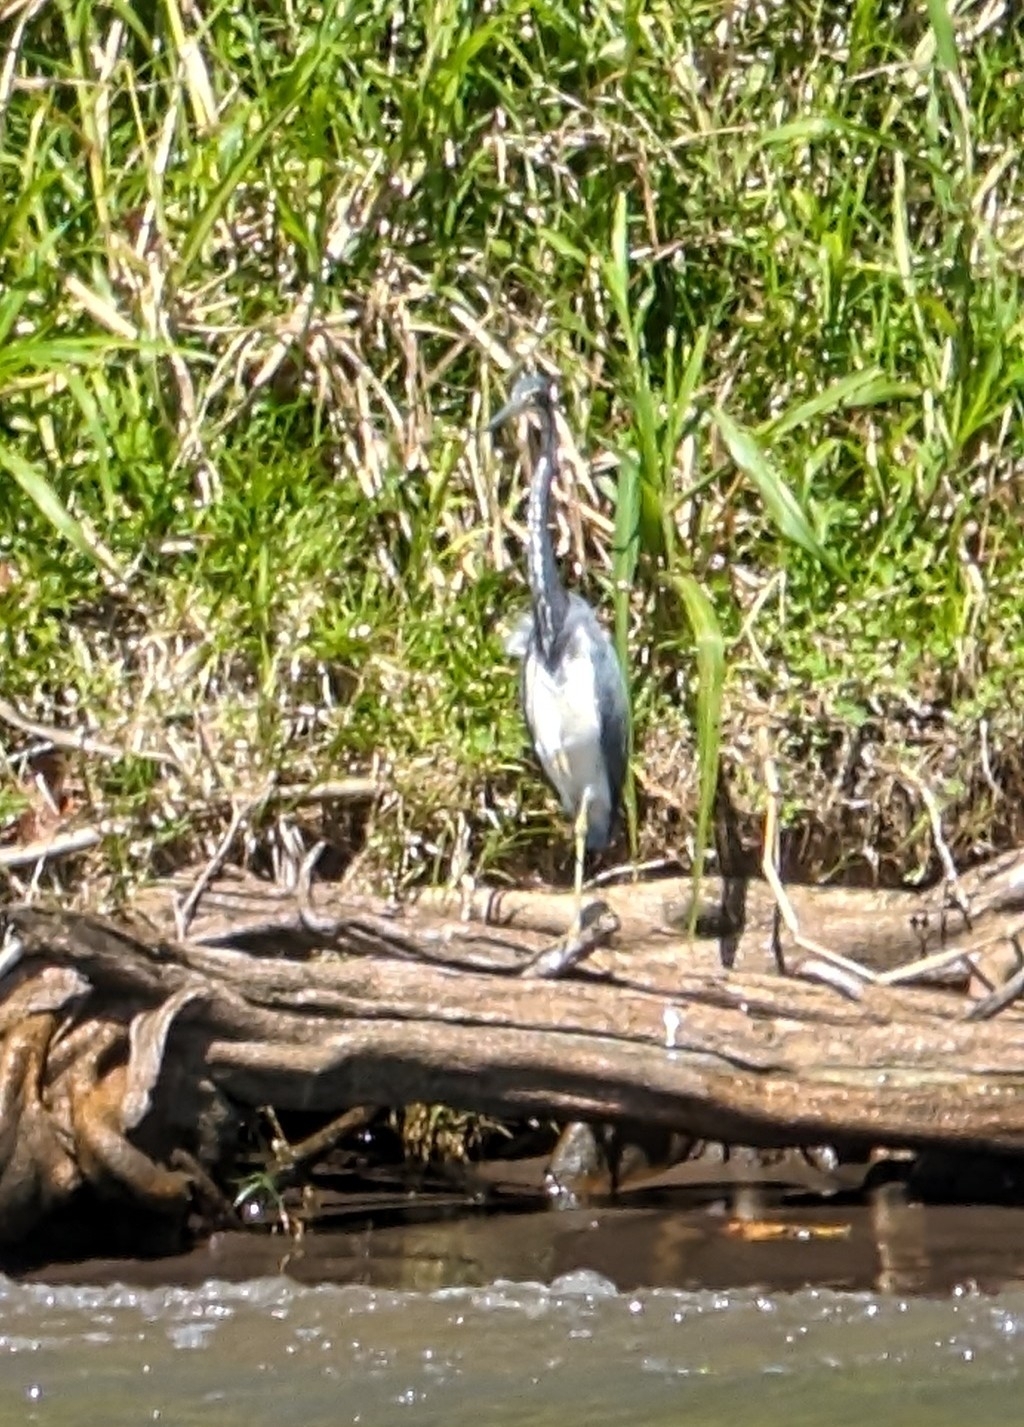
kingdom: Animalia
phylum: Chordata
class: Aves
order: Pelecaniformes
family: Ardeidae
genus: Egretta
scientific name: Egretta tricolor
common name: Tricolored heron
